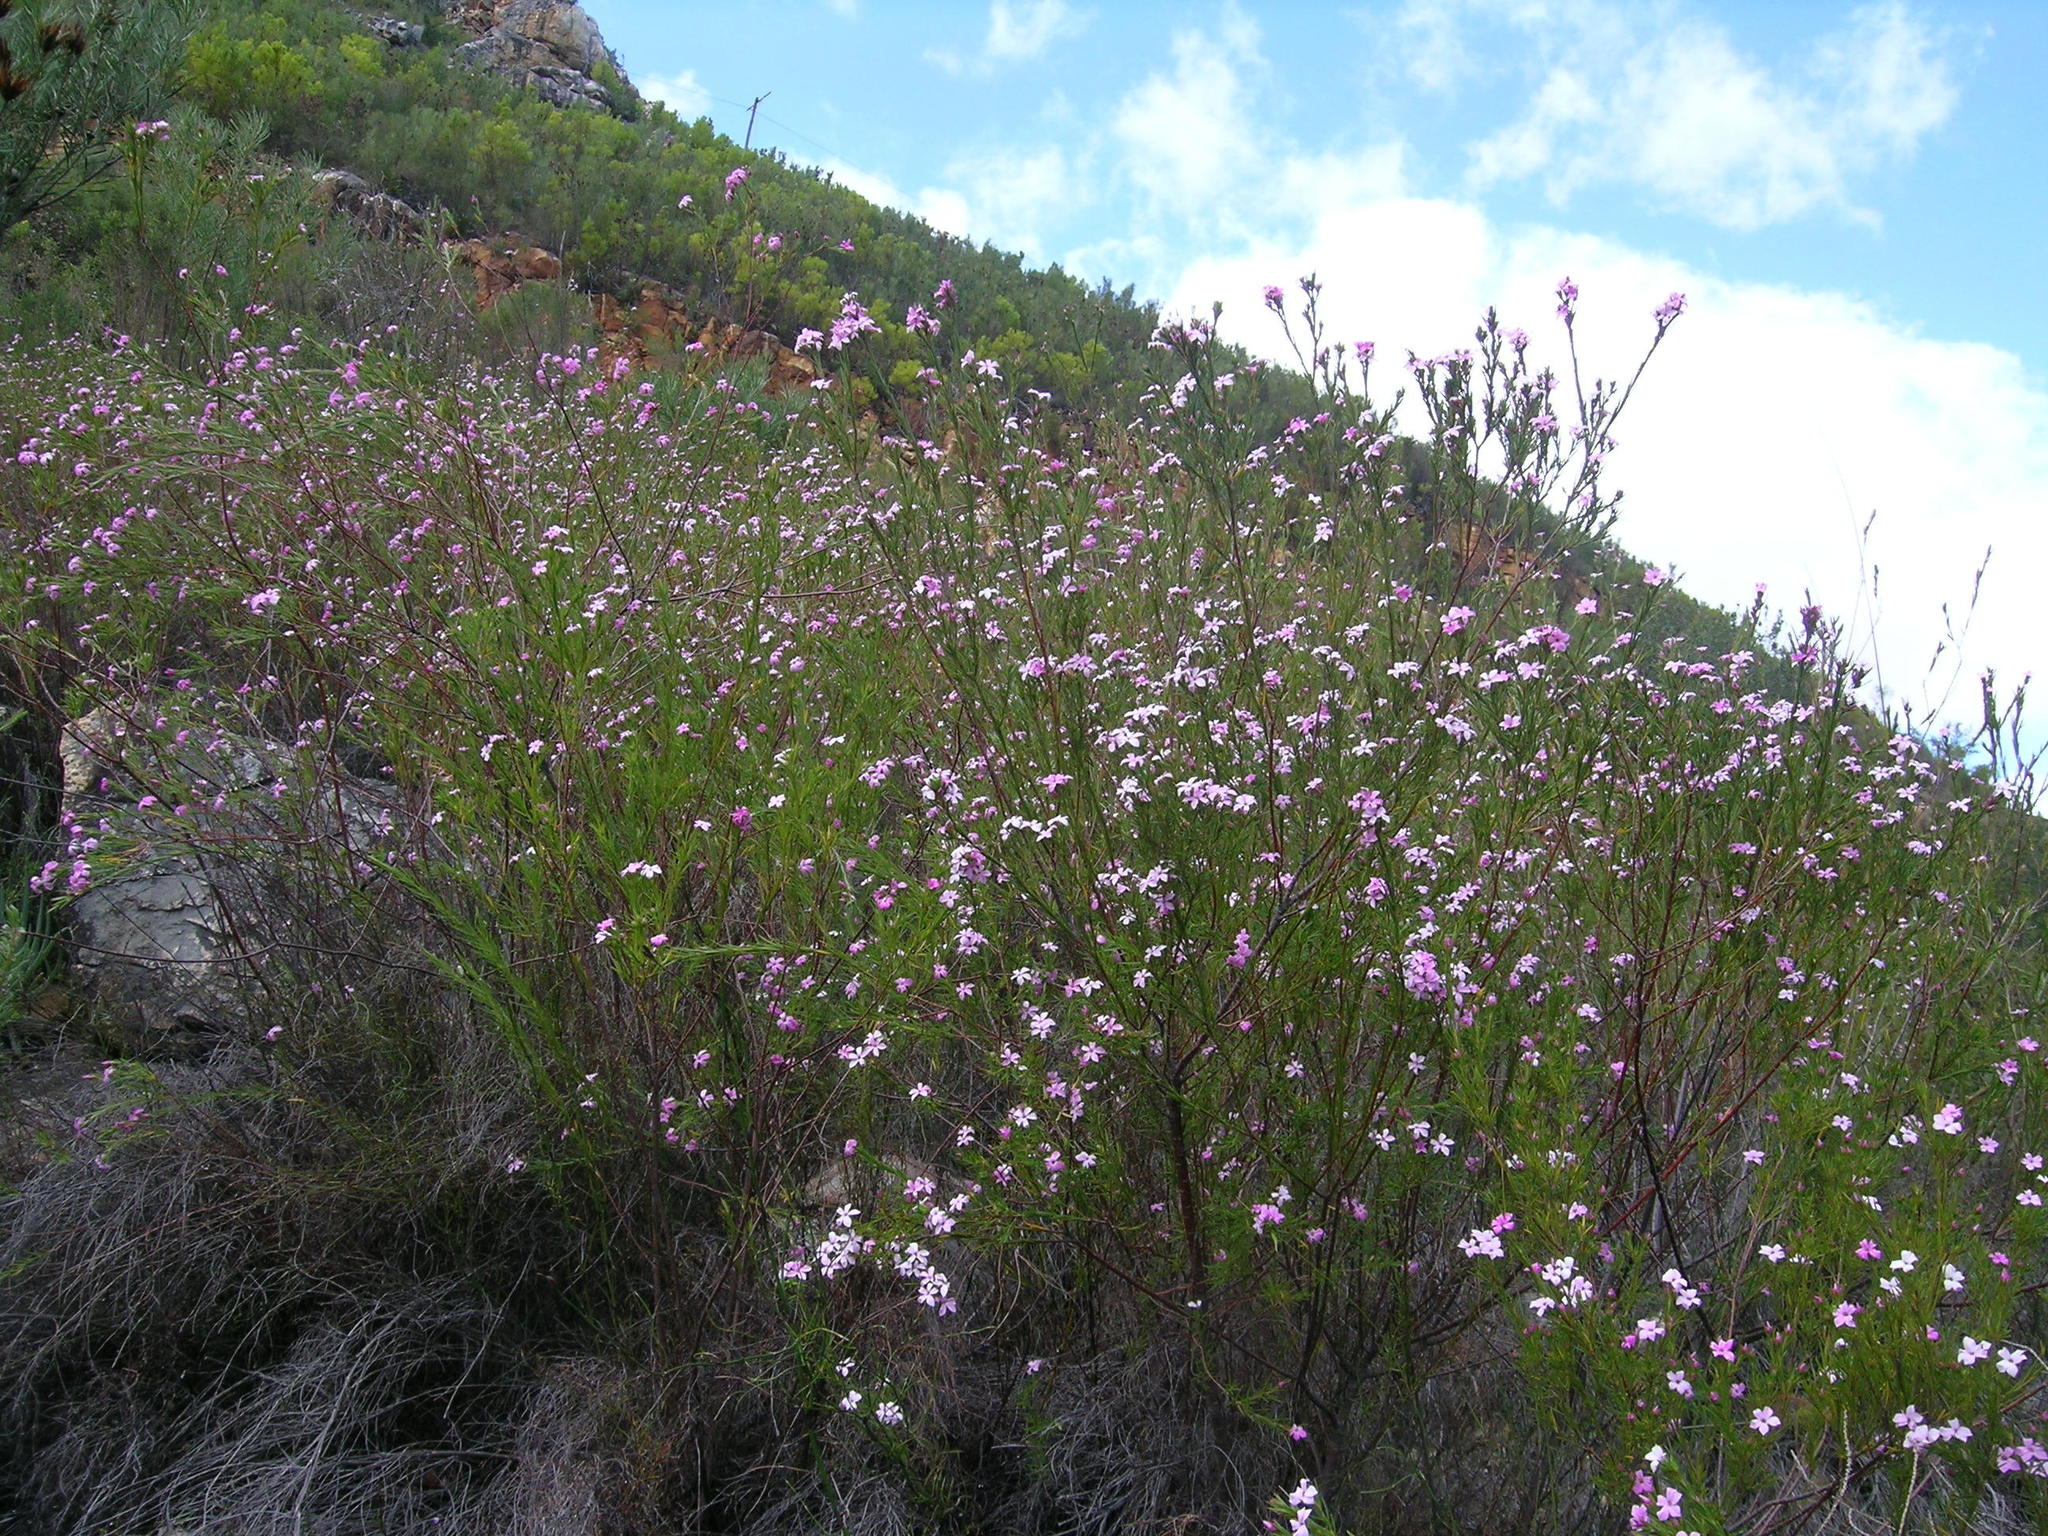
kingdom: Plantae
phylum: Tracheophyta
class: Magnoliopsida
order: Sapindales
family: Rutaceae
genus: Coleonema
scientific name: Coleonema virgatum
